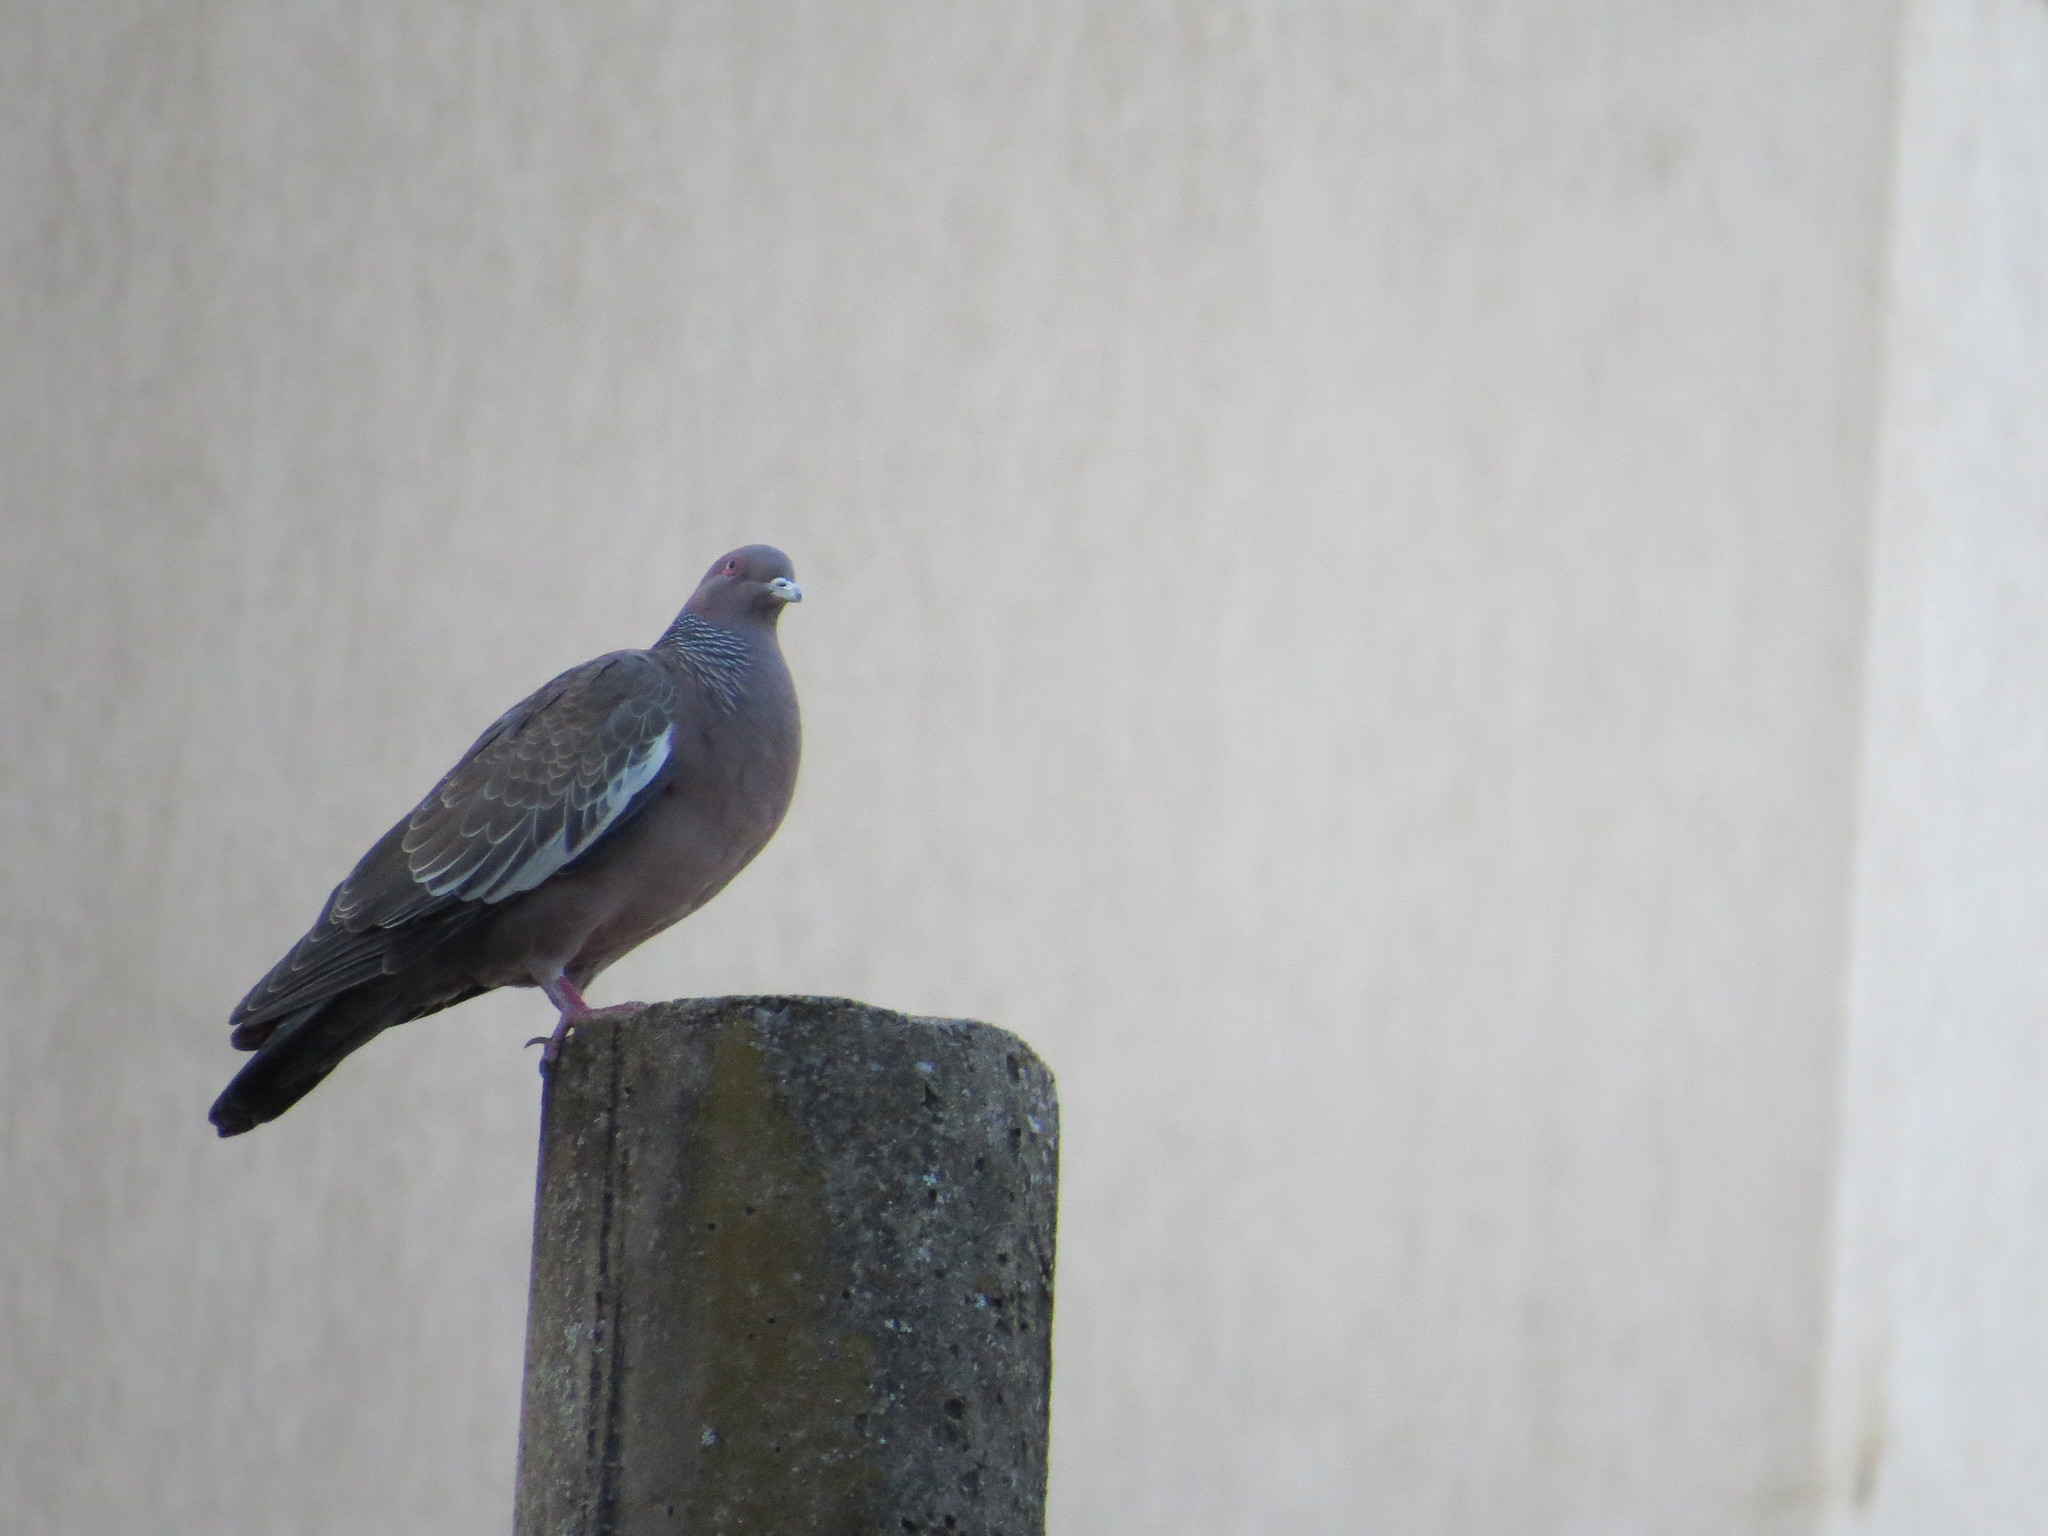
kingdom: Animalia
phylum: Chordata
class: Aves
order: Columbiformes
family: Columbidae
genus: Patagioenas
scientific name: Patagioenas picazuro
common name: Picazuro pigeon
